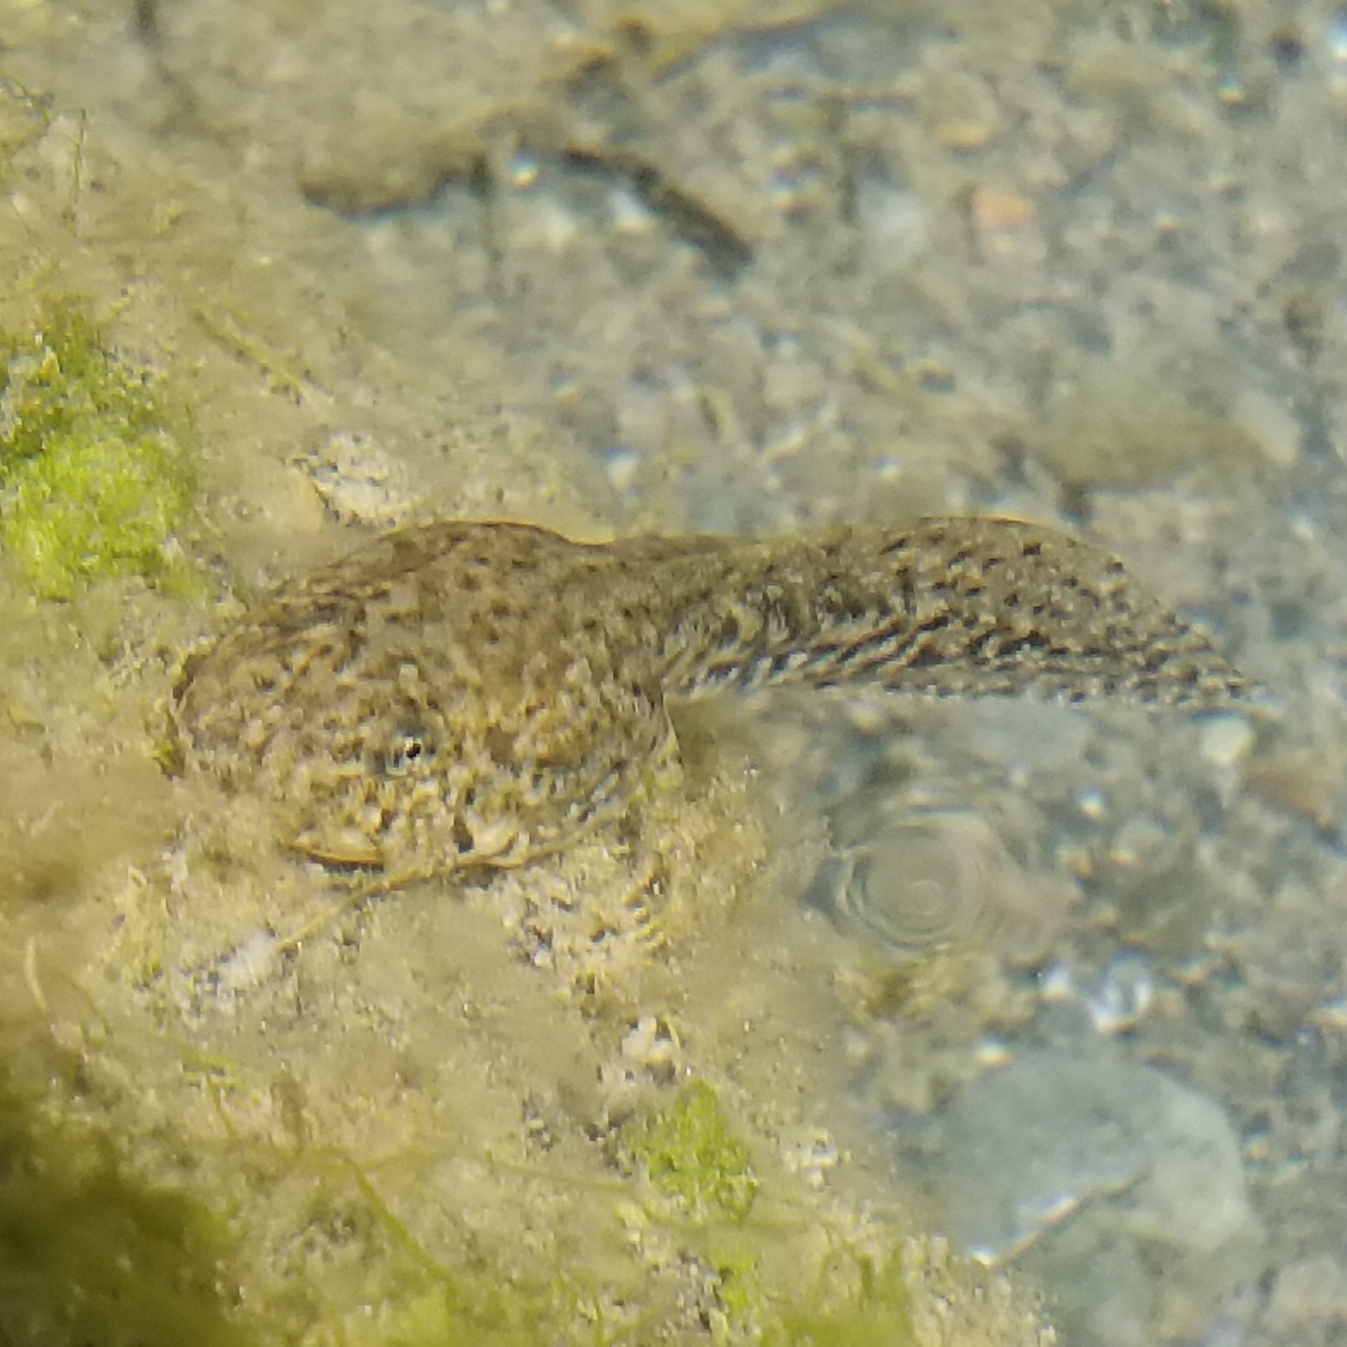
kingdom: Animalia
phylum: Chordata
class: Amphibia
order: Anura
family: Ranidae
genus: Rana
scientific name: Rana boylii
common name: Foothill yellow-legged frog
